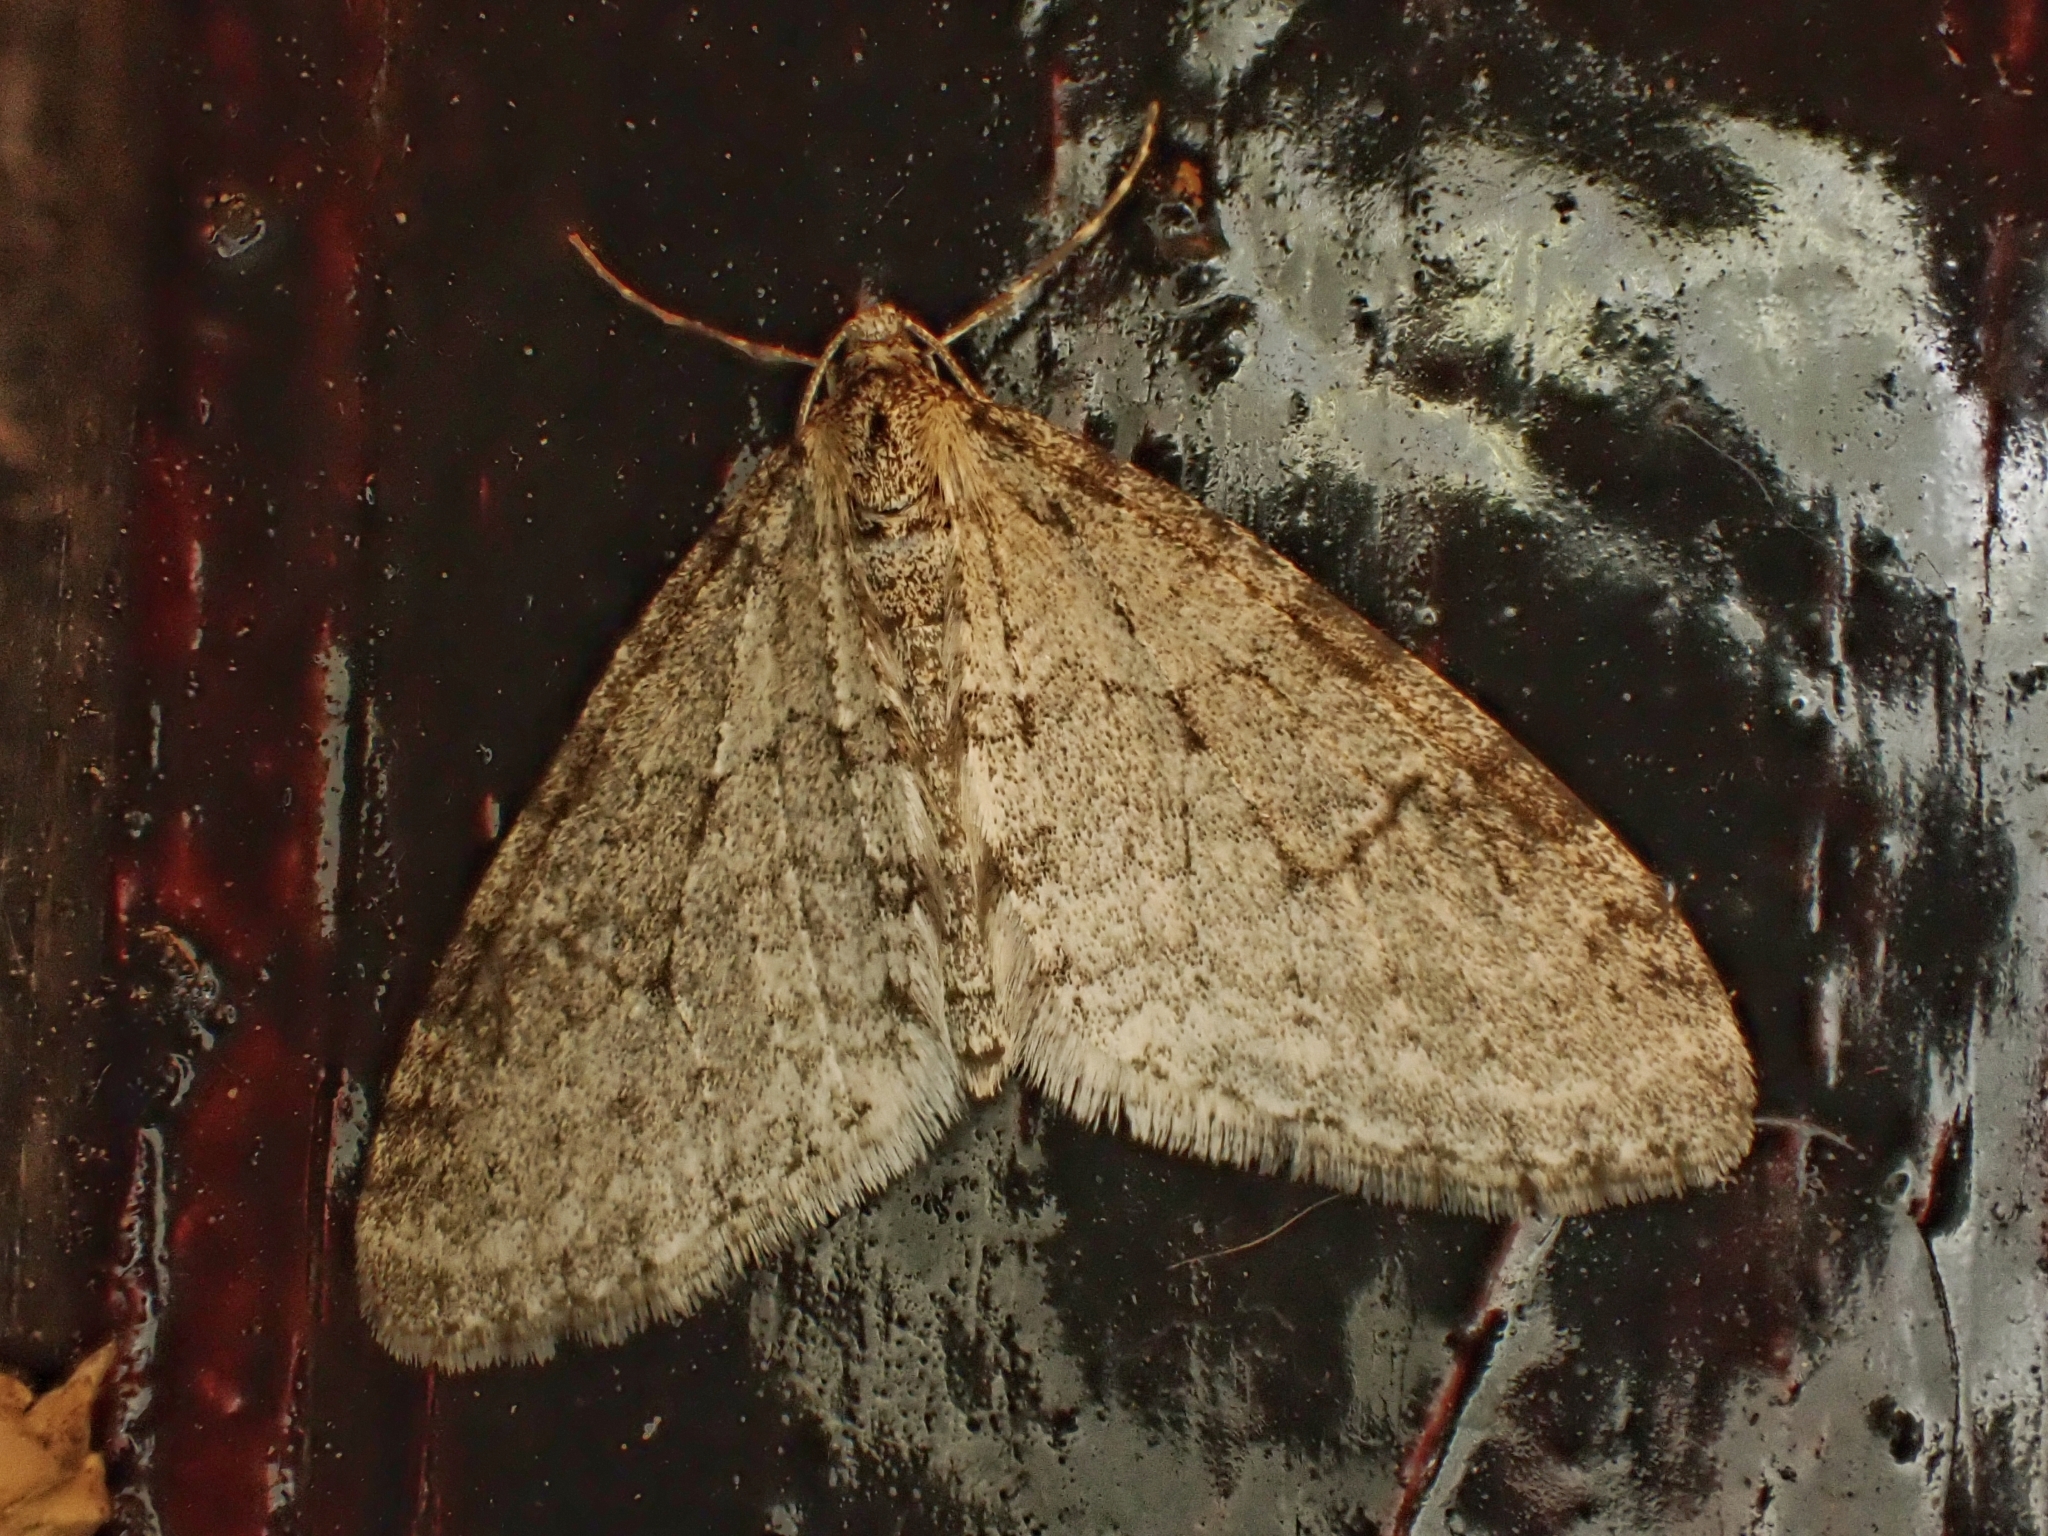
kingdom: Animalia
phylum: Arthropoda
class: Insecta
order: Lepidoptera
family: Geometridae
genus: Trichopteryx
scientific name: Trichopteryx carpinata
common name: Early tooth-striped
